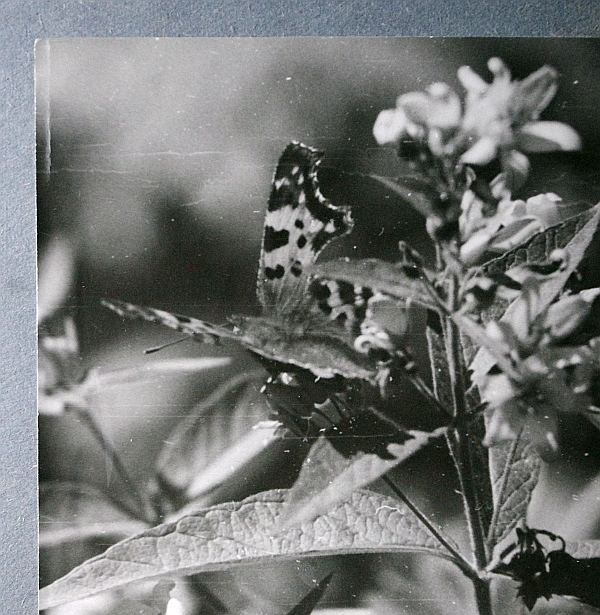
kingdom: Animalia
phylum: Arthropoda
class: Insecta
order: Lepidoptera
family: Nymphalidae
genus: Polygonia
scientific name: Polygonia c-album
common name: Comma
